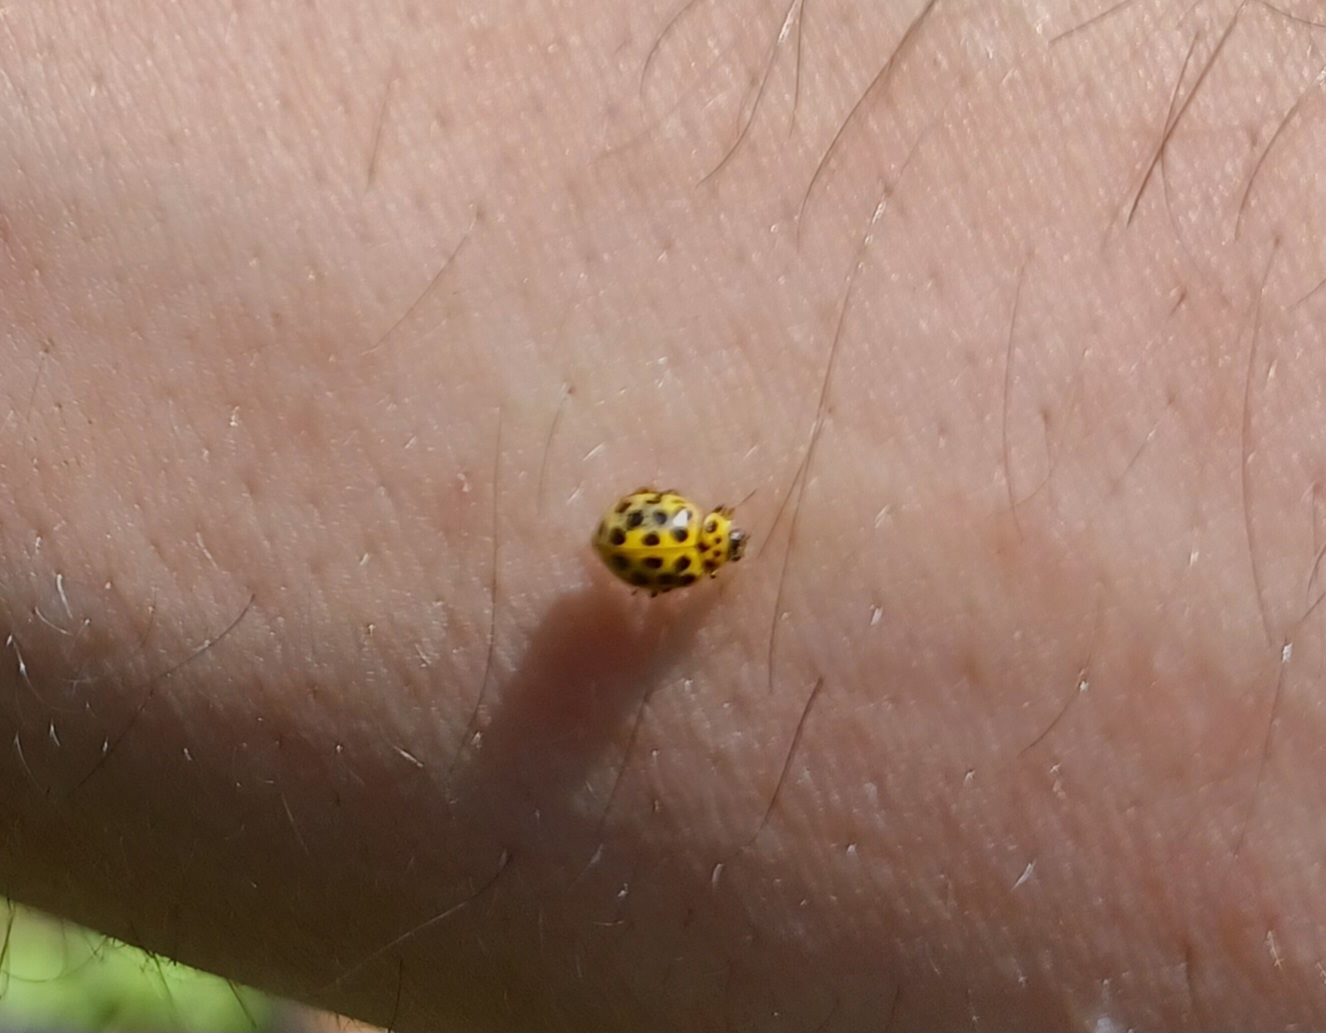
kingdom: Animalia
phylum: Arthropoda
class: Insecta
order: Coleoptera
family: Coccinellidae
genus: Psyllobora
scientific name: Psyllobora vigintiduopunctata
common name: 22-spot ladybird
